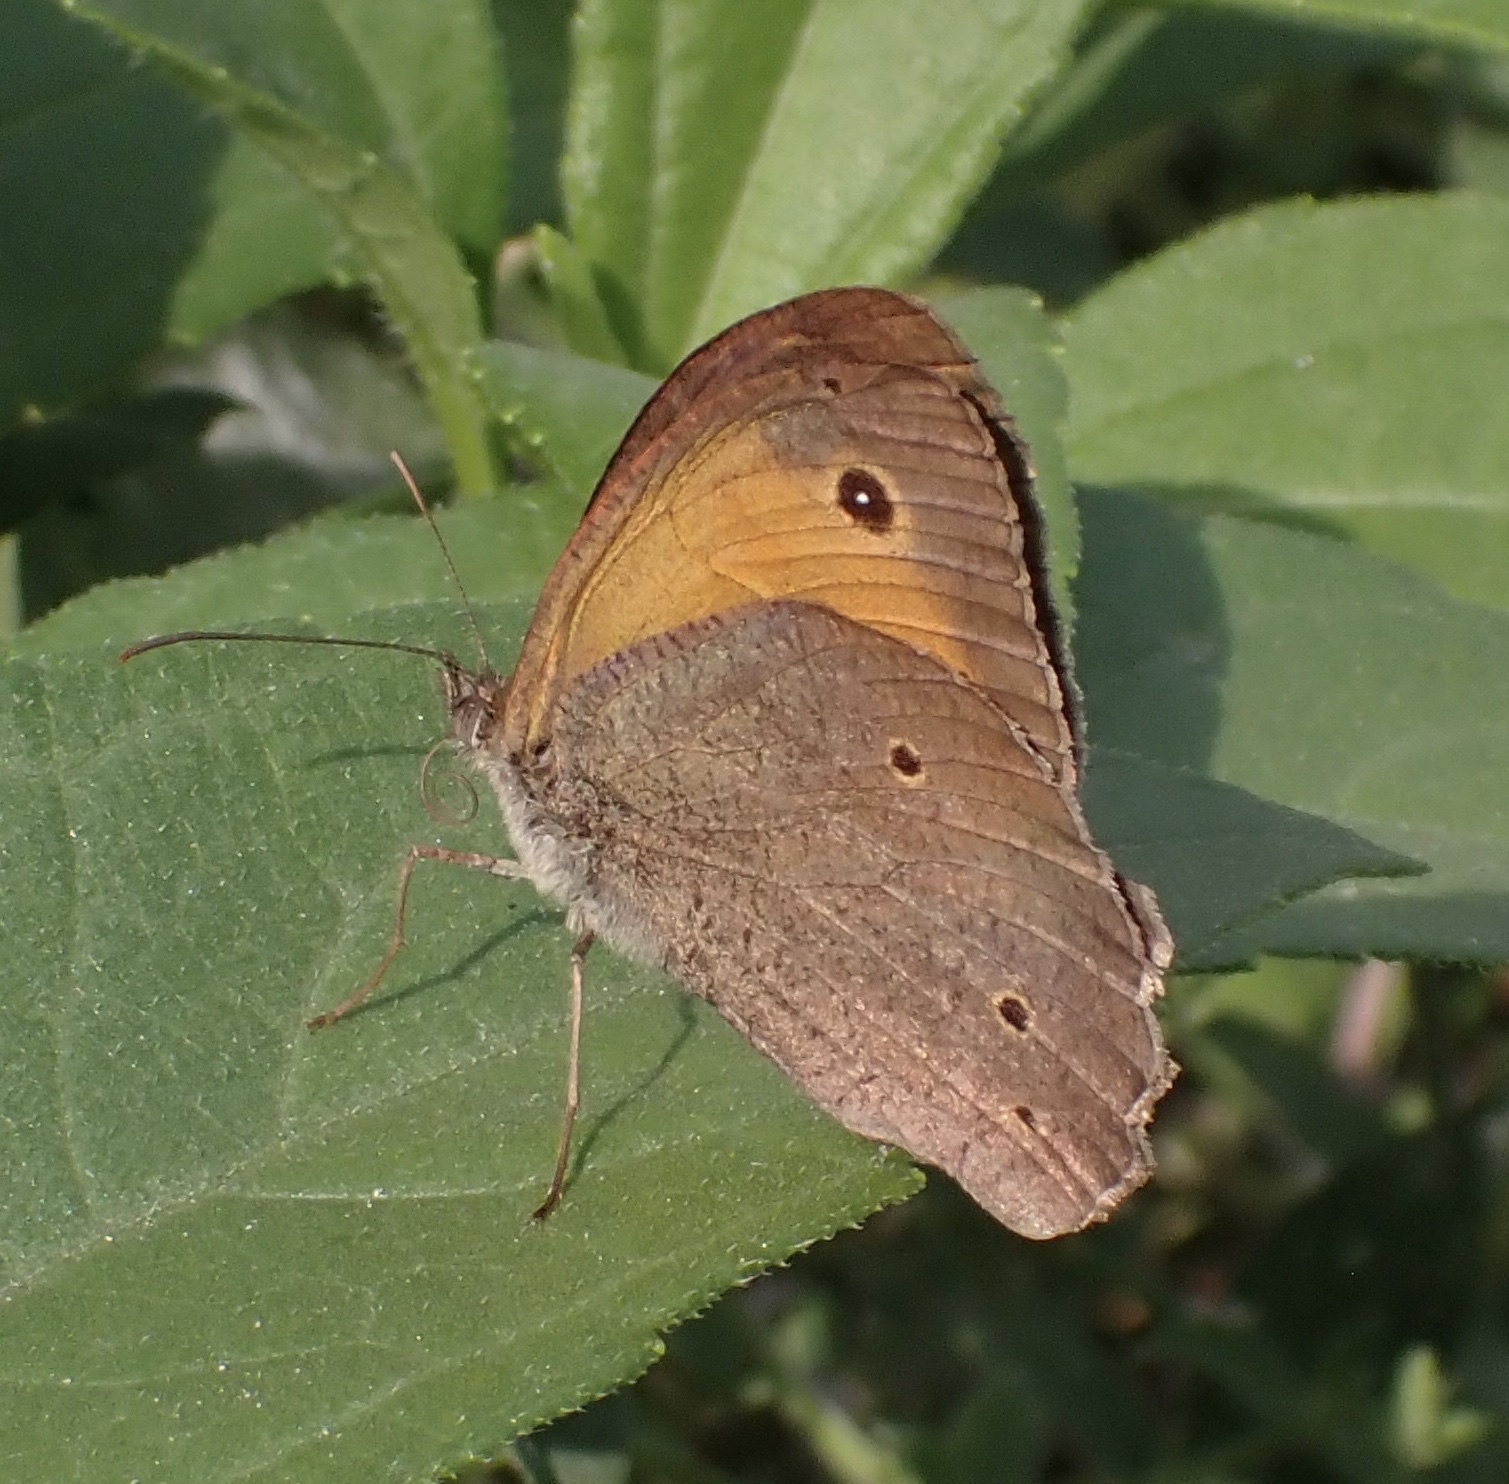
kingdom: Animalia
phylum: Arthropoda
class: Insecta
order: Lepidoptera
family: Nymphalidae
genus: Maniola
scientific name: Maniola jurtina
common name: Meadow brown
